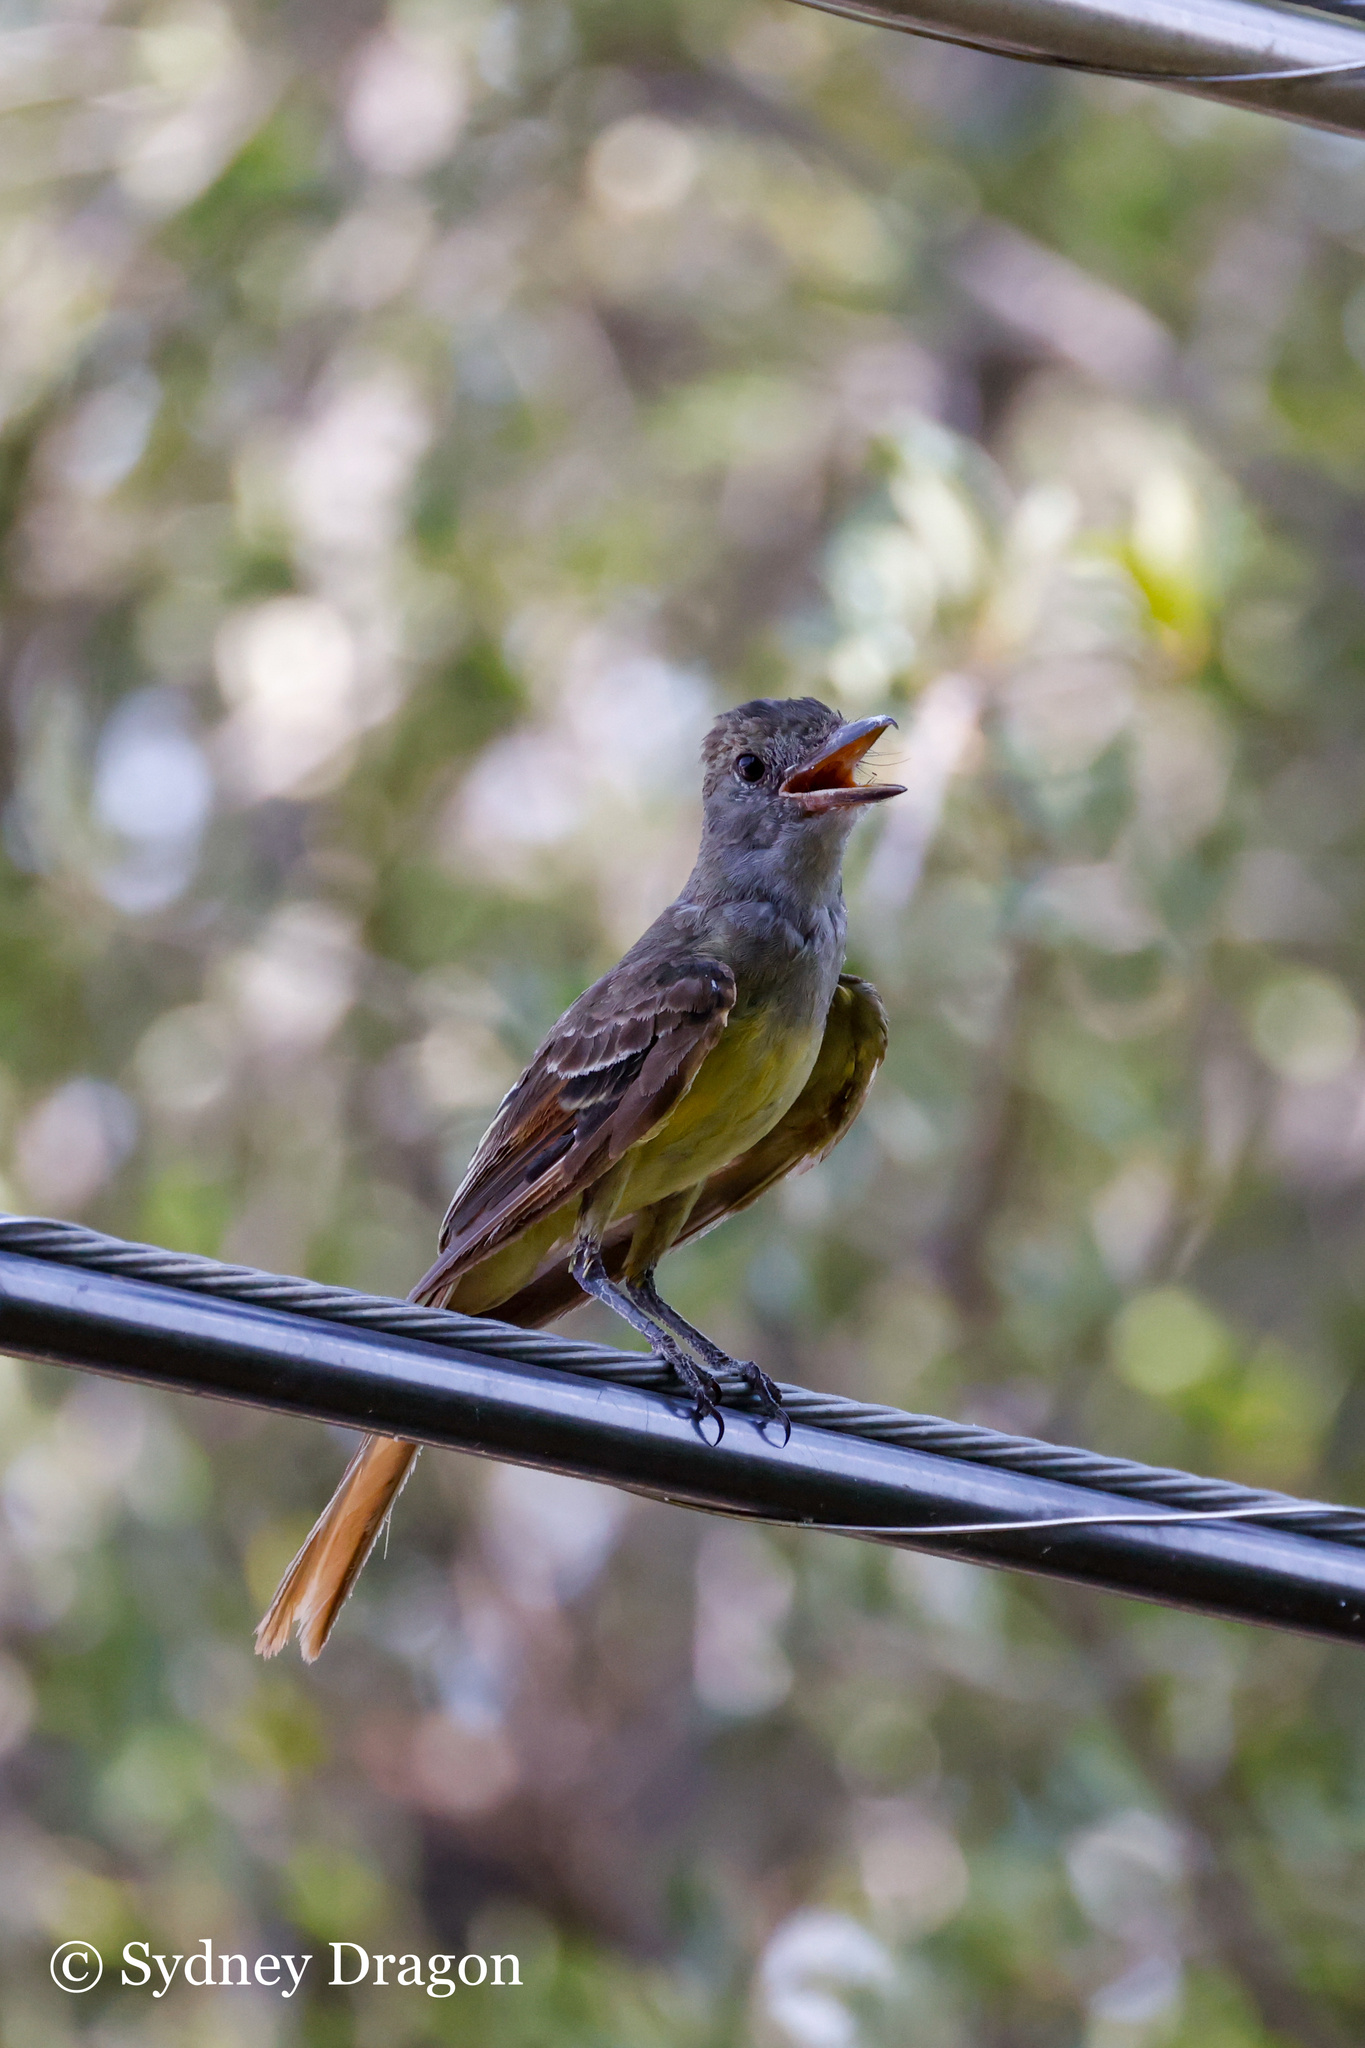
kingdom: Animalia
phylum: Chordata
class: Aves
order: Passeriformes
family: Tyrannidae
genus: Myiarchus
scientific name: Myiarchus crinitus
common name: Great crested flycatcher
